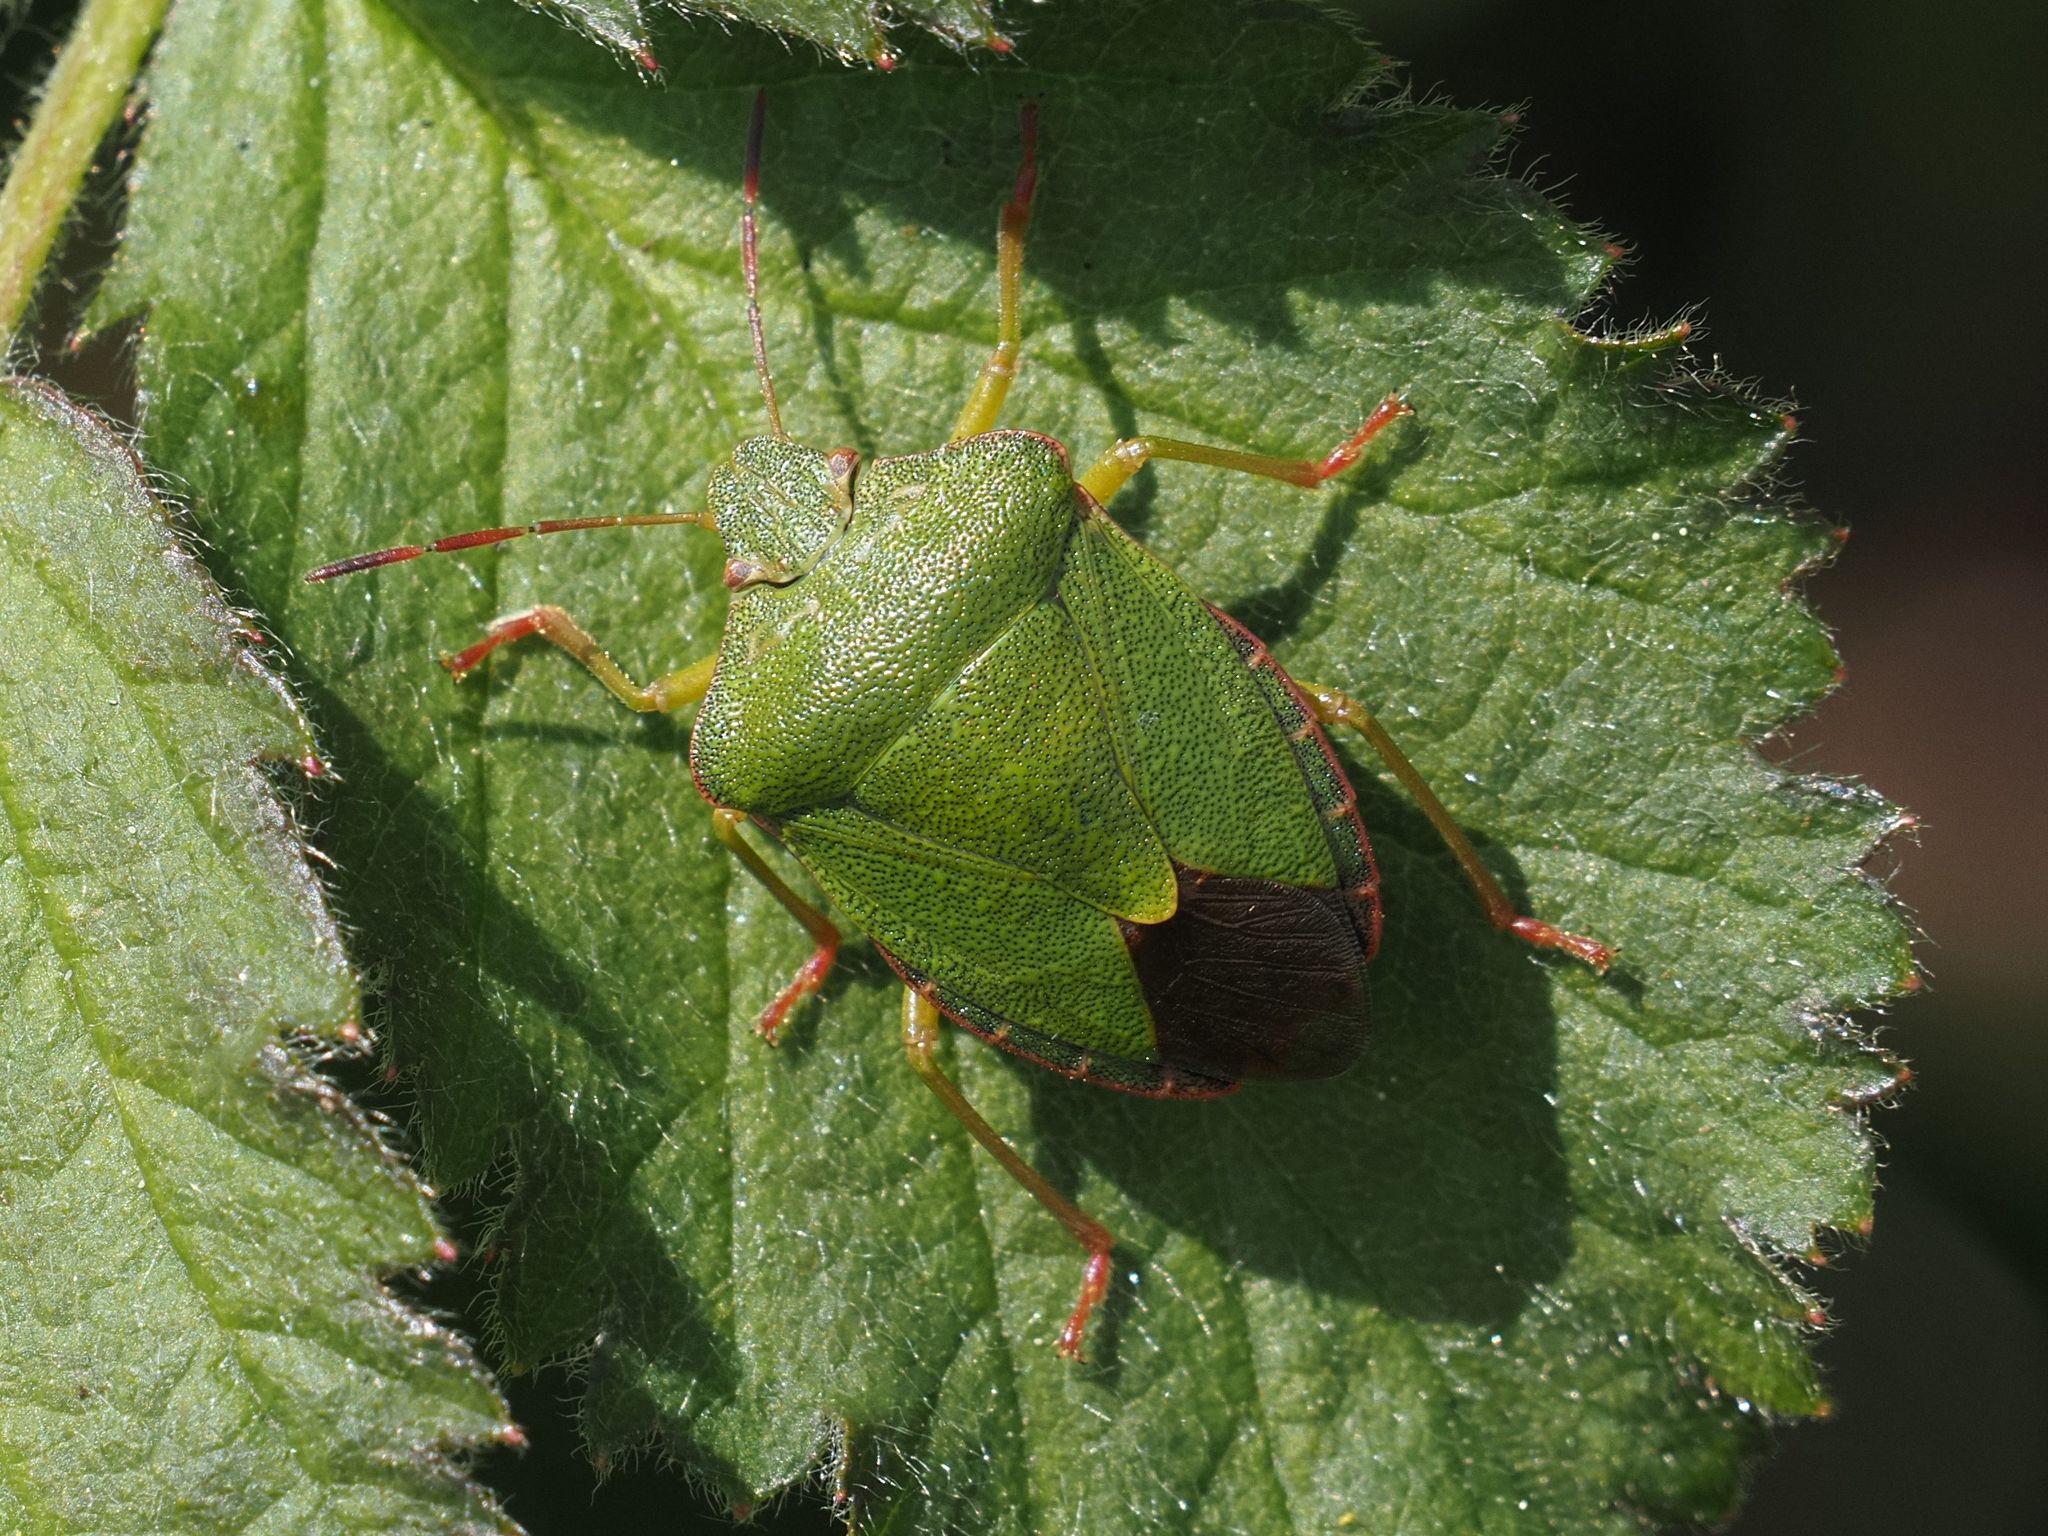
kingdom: Animalia
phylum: Arthropoda
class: Insecta
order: Hemiptera
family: Pentatomidae
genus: Palomena
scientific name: Palomena prasina
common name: Green shieldbug
